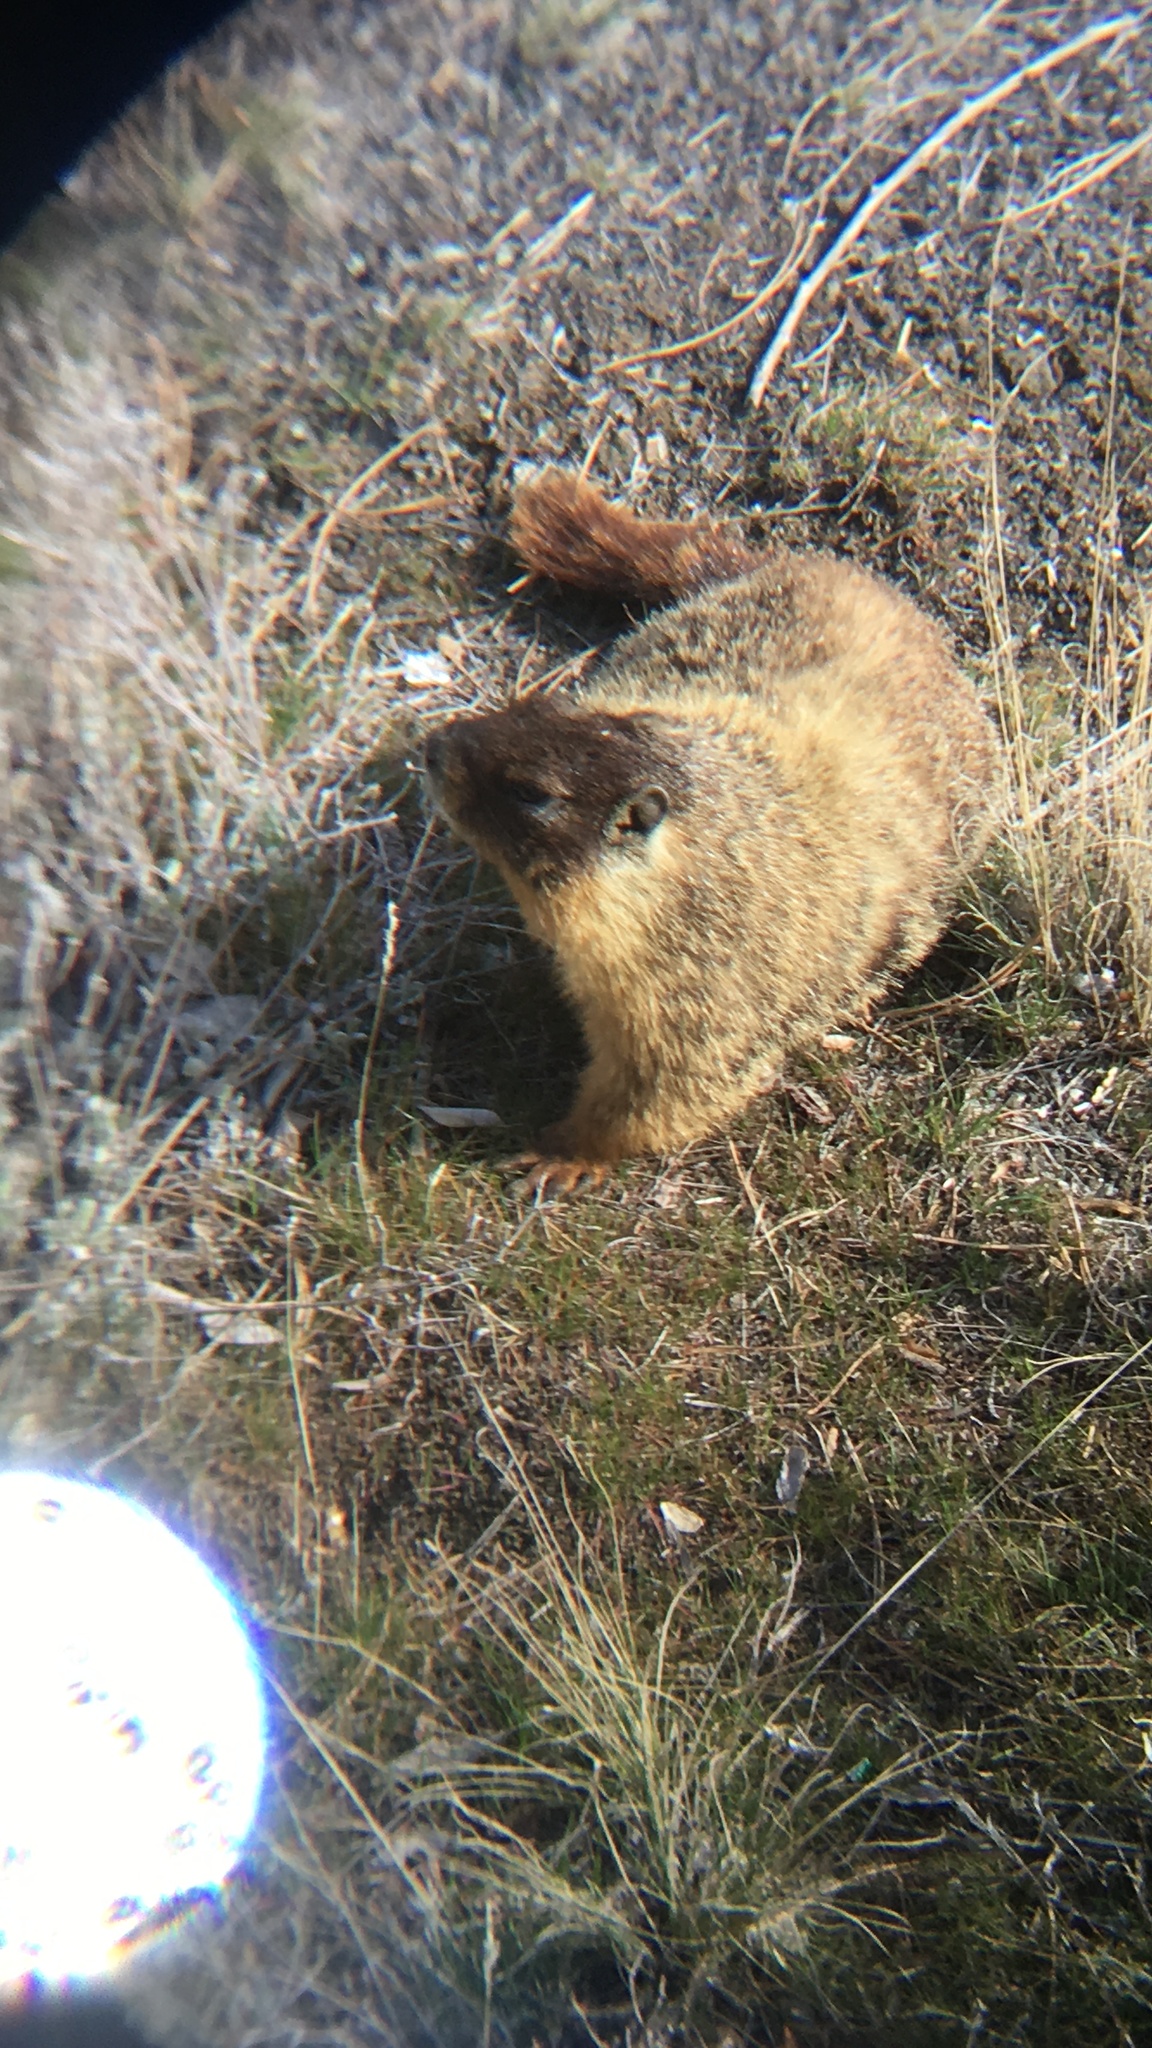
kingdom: Animalia
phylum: Chordata
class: Mammalia
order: Rodentia
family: Sciuridae
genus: Marmota
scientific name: Marmota flaviventris
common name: Yellow-bellied marmot
